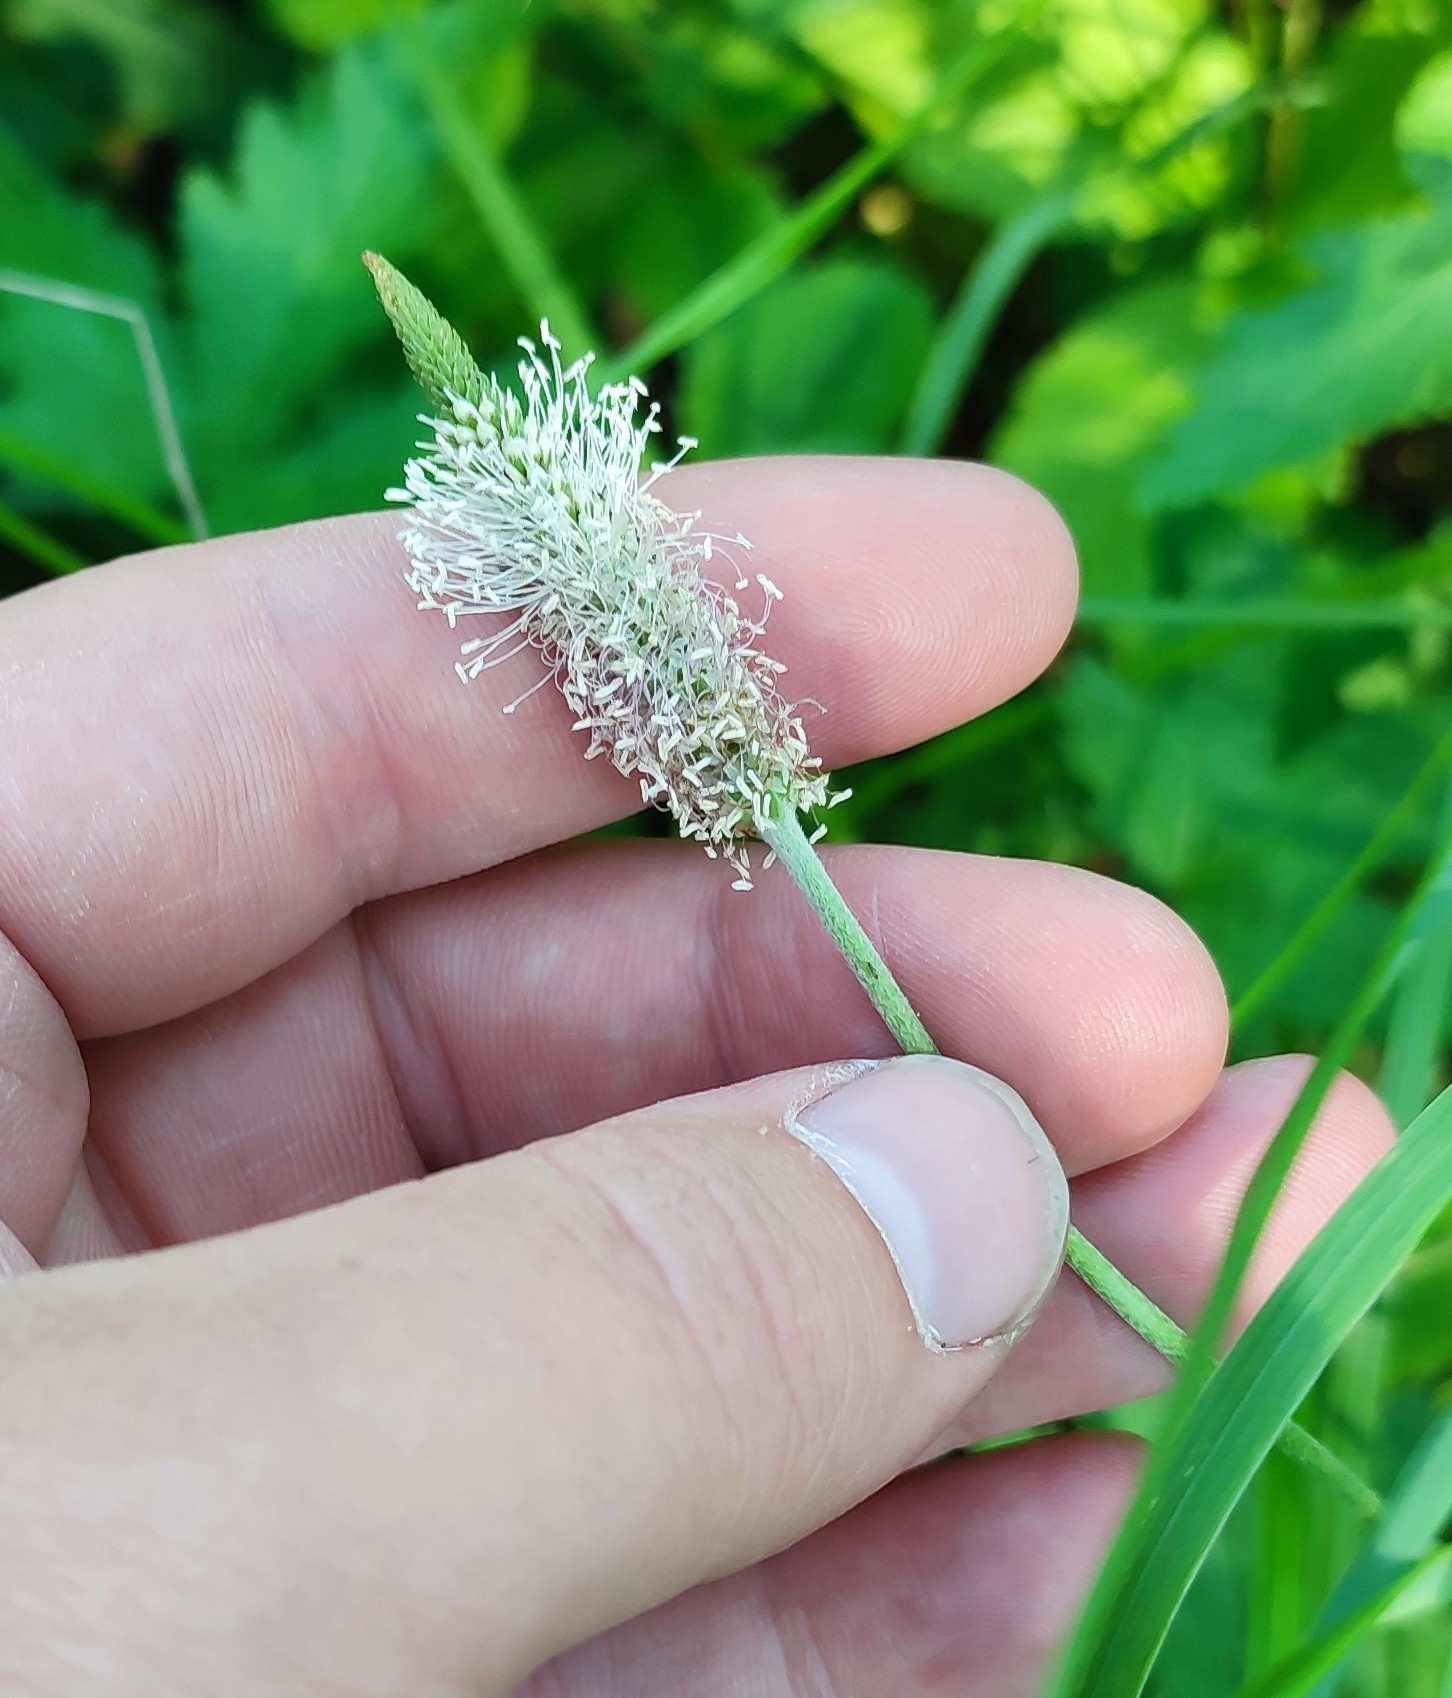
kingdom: Plantae
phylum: Tracheophyta
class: Magnoliopsida
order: Lamiales
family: Plantaginaceae
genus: Plantago
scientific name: Plantago urvillei
